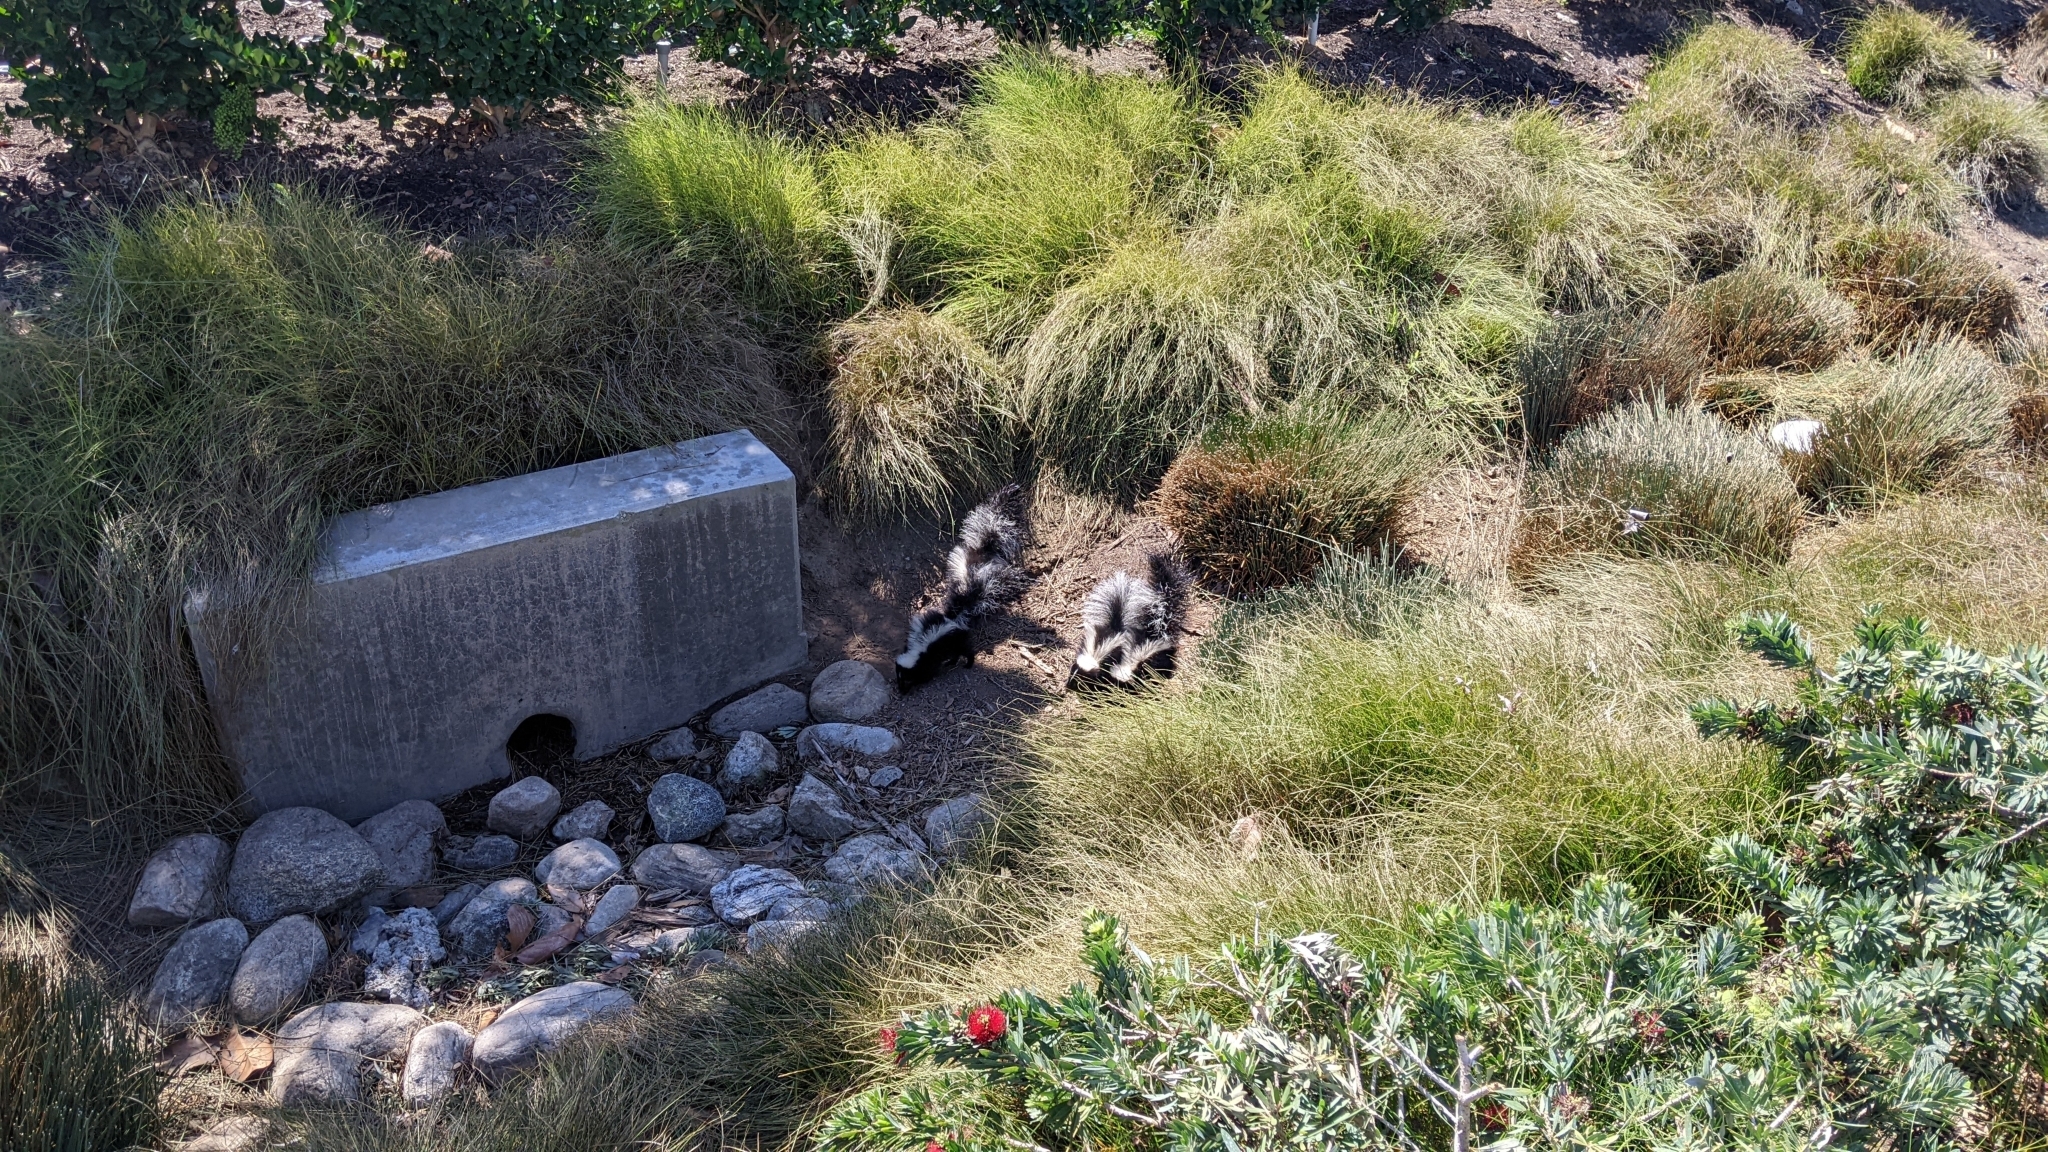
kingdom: Animalia
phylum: Chordata
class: Mammalia
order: Carnivora
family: Mephitidae
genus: Mephitis
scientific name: Mephitis mephitis
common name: Striped skunk
